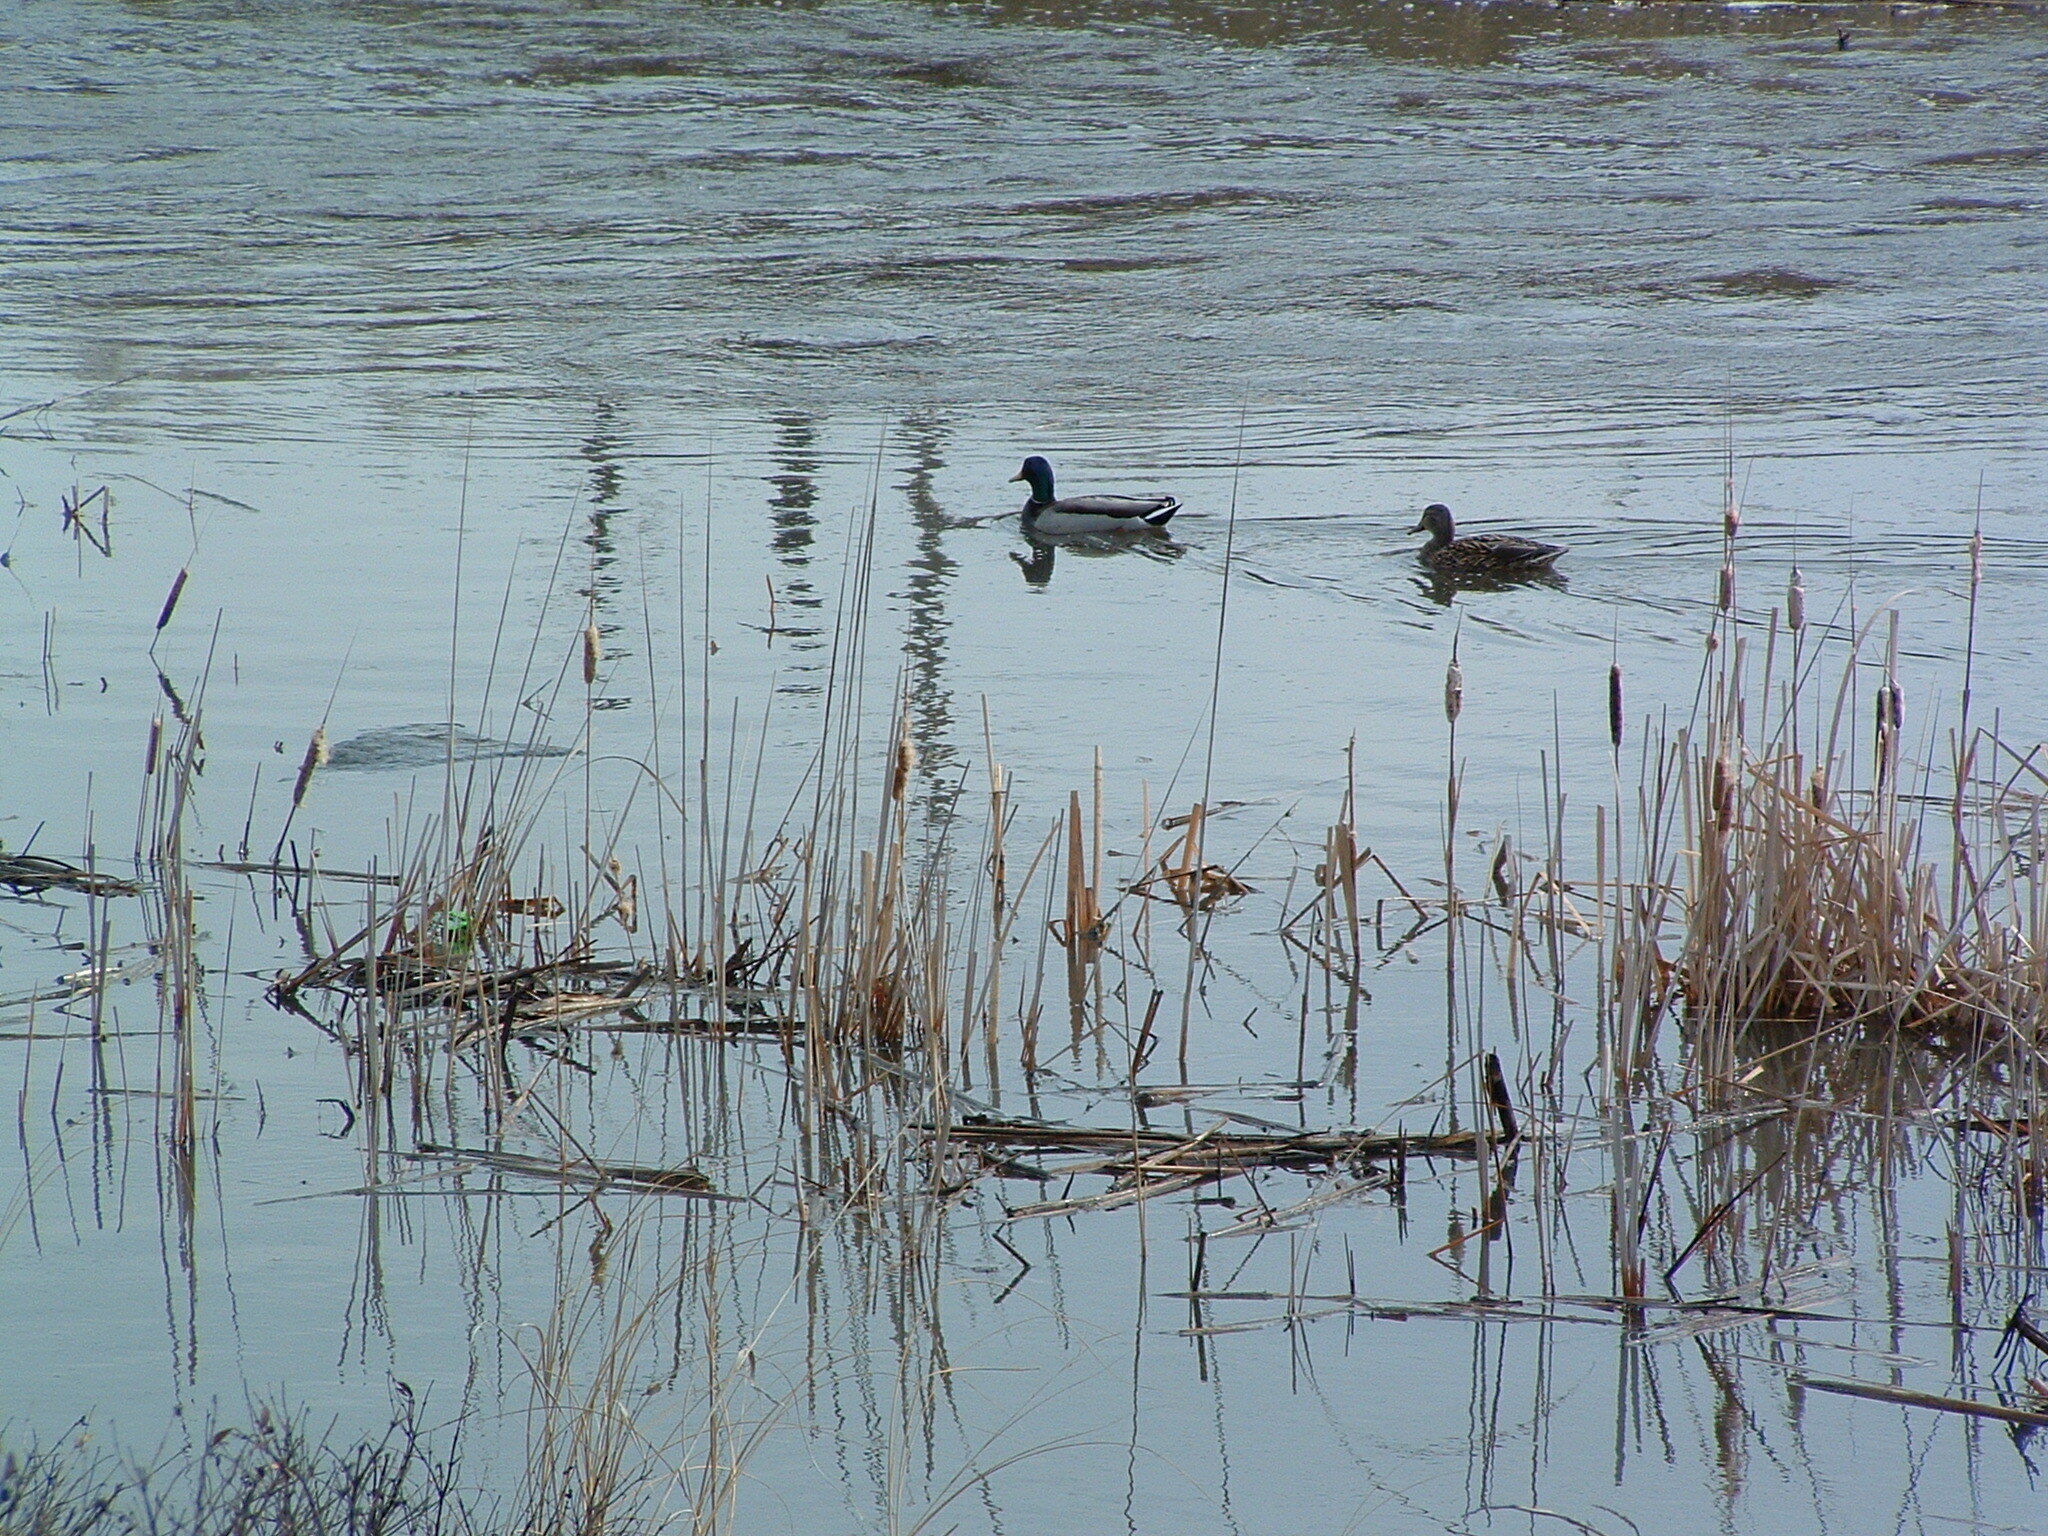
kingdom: Animalia
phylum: Chordata
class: Aves
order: Anseriformes
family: Anatidae
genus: Anas
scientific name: Anas platyrhynchos
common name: Mallard
